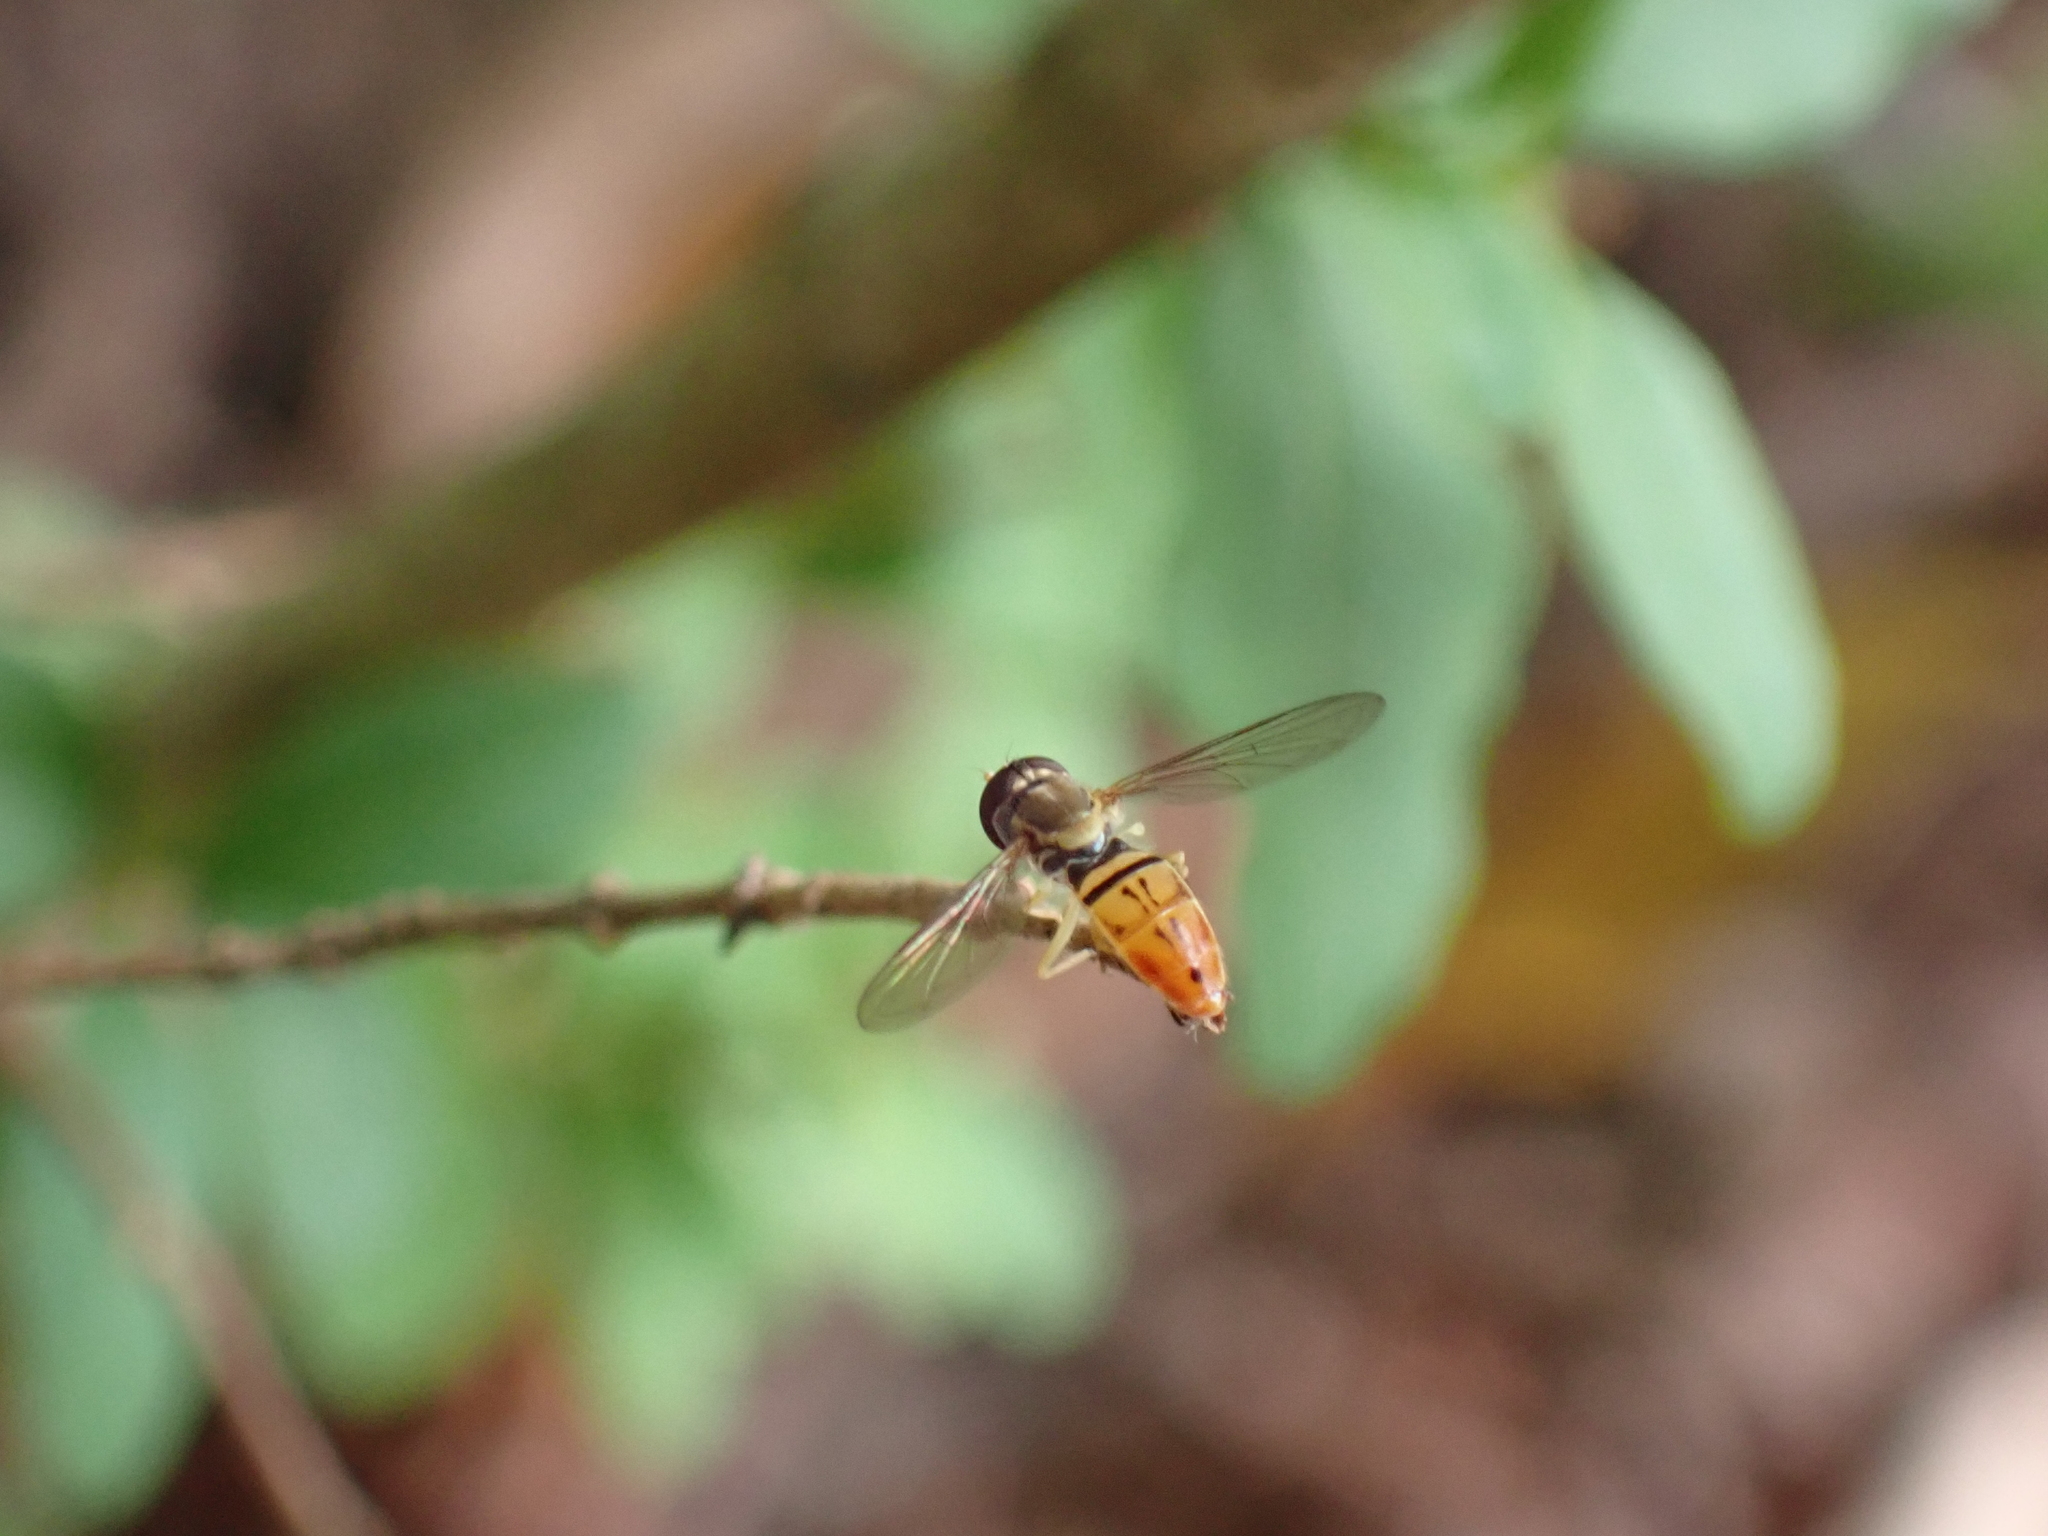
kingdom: Animalia
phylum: Arthropoda
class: Insecta
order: Diptera
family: Syrphidae
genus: Toxomerus
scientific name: Toxomerus marginatus
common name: Syrphid fly
